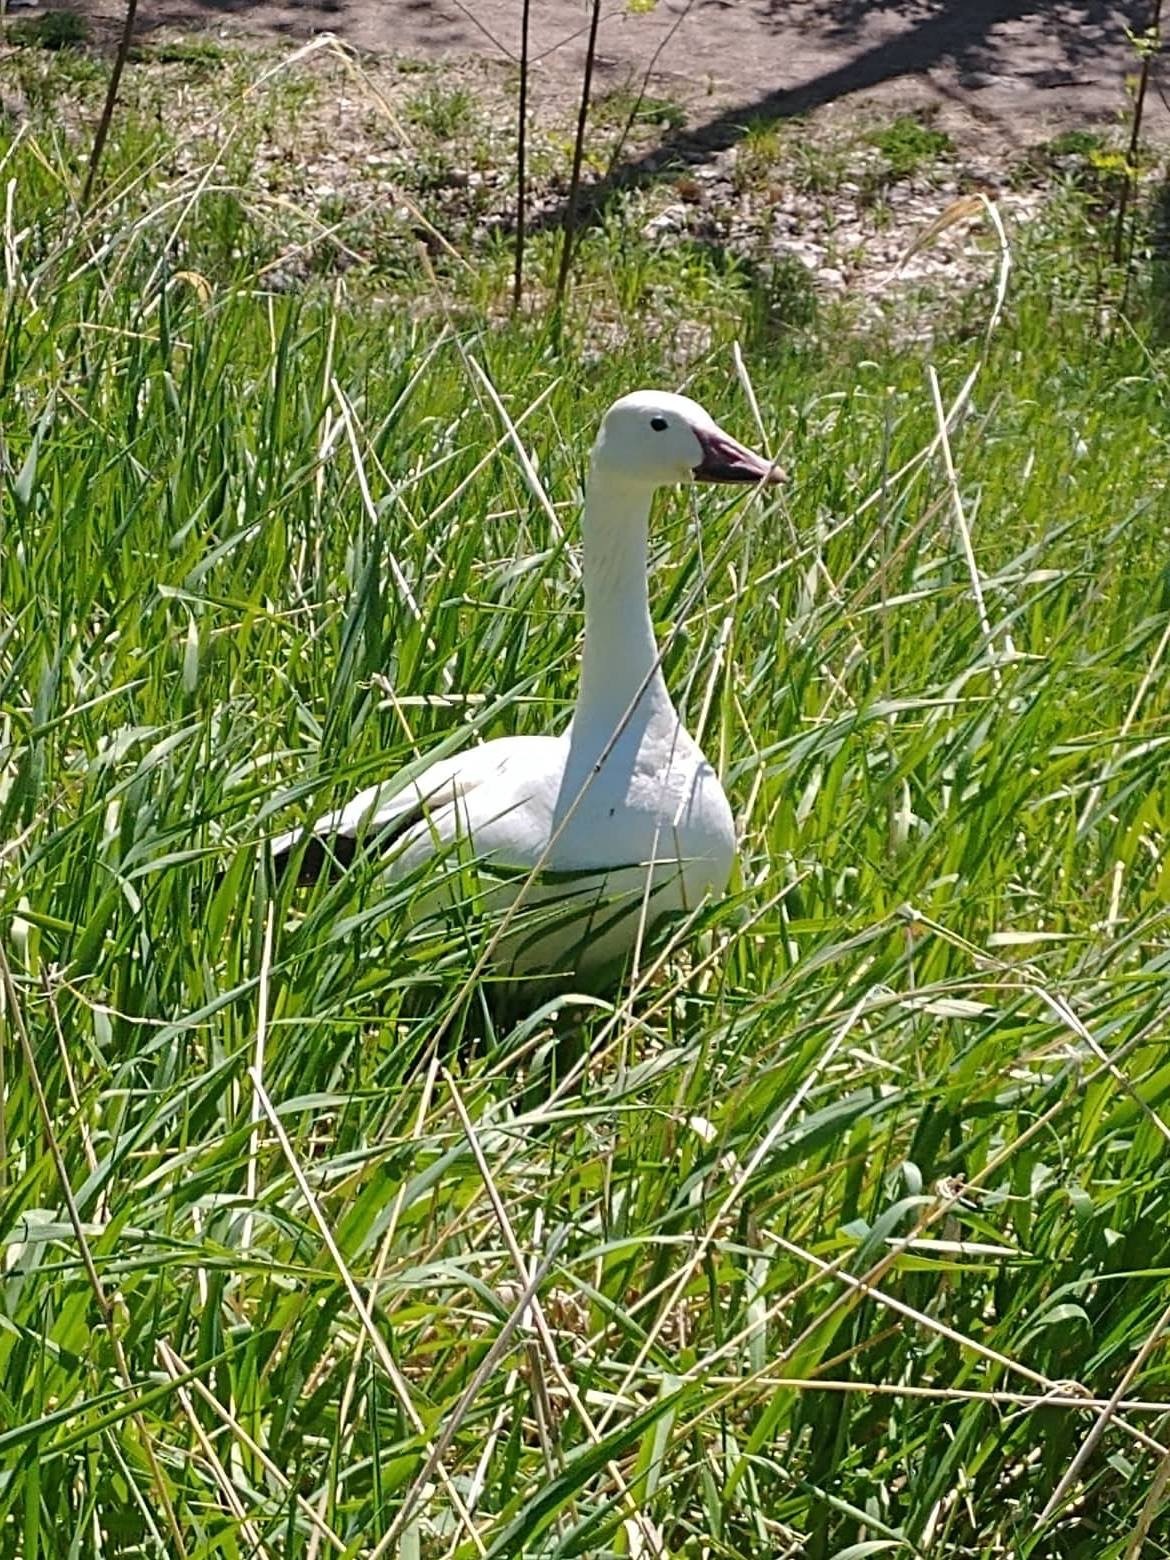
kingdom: Animalia
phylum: Chordata
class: Aves
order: Anseriformes
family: Anatidae
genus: Anser
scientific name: Anser caerulescens
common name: Snow goose
